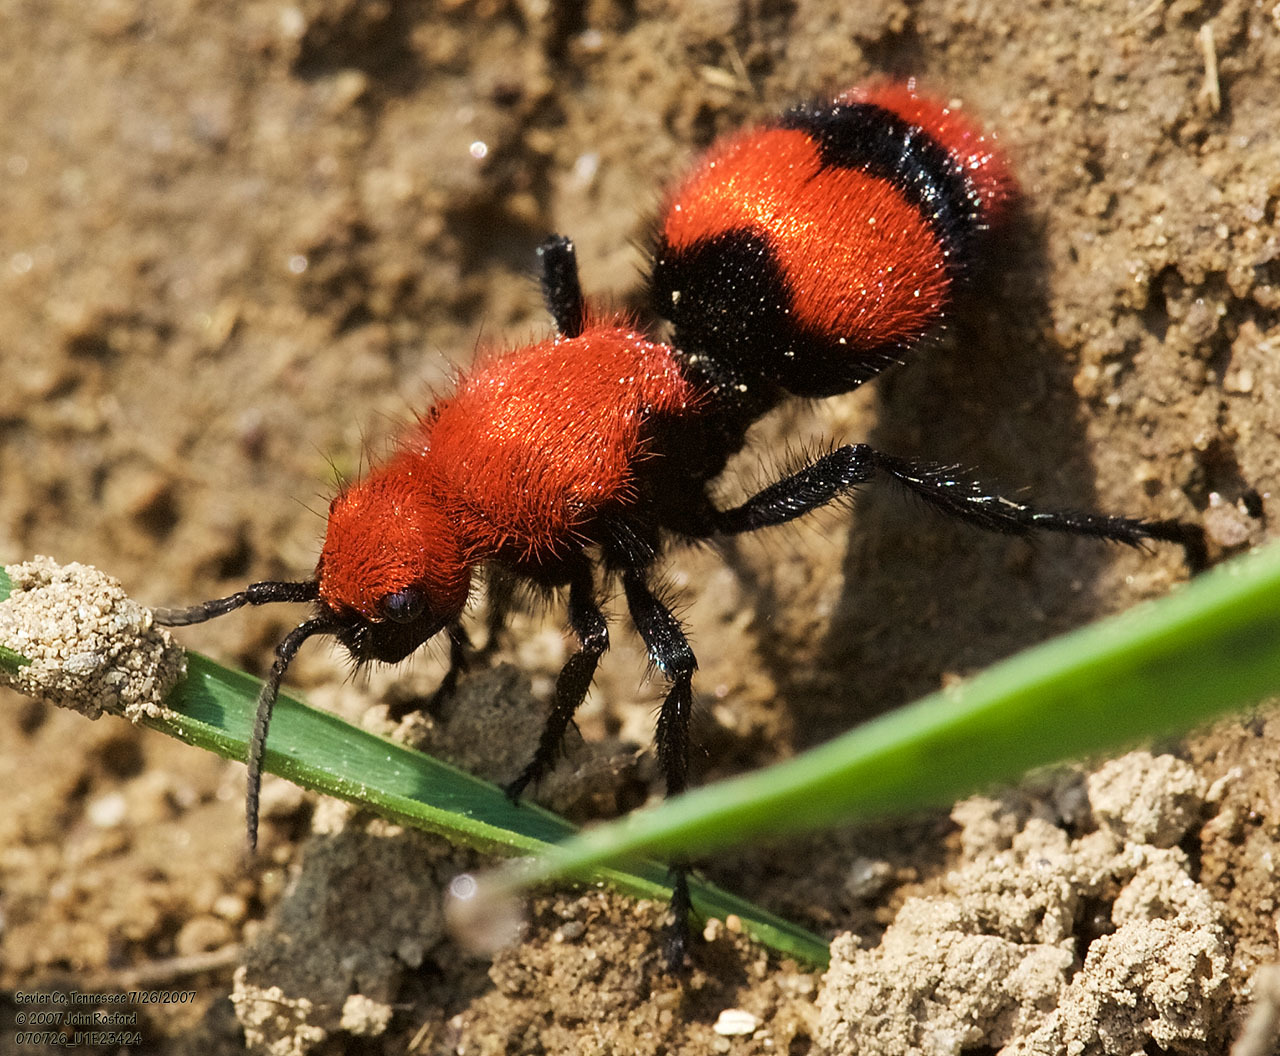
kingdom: Animalia
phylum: Arthropoda
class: Insecta
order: Hymenoptera
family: Mutillidae
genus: Dasymutilla
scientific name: Dasymutilla occidentalis
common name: Common eastern velvet ant
